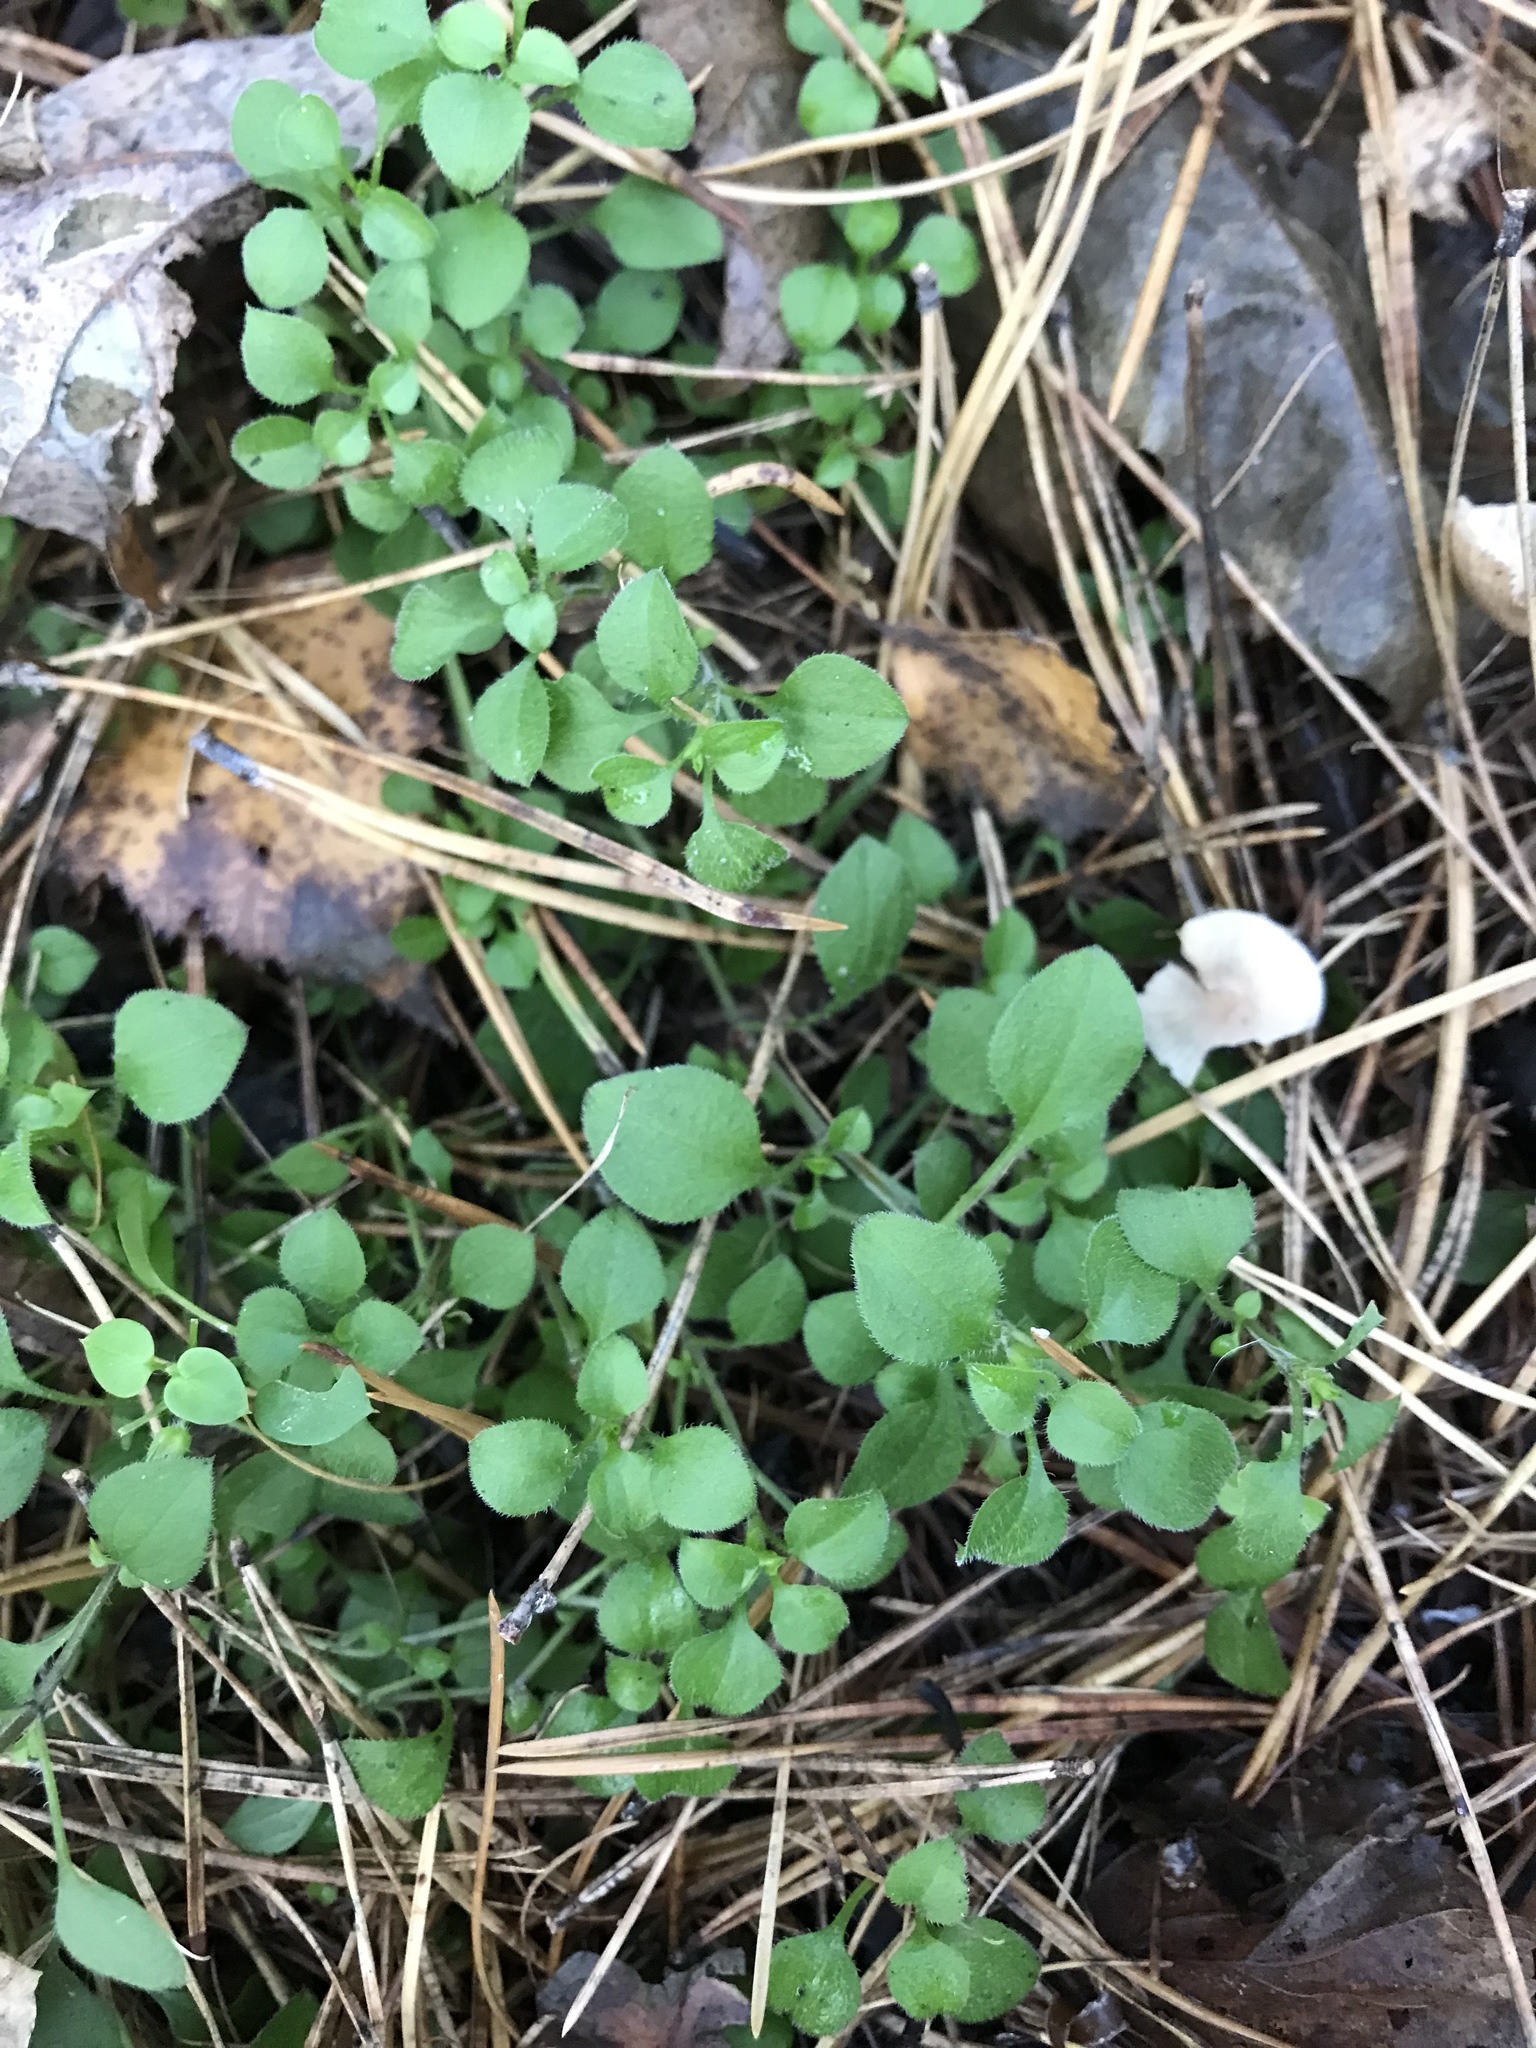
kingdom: Plantae
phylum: Tracheophyta
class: Magnoliopsida
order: Caryophyllales
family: Caryophyllaceae
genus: Moehringia
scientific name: Moehringia trinervia
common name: Three-nerved sandwort
